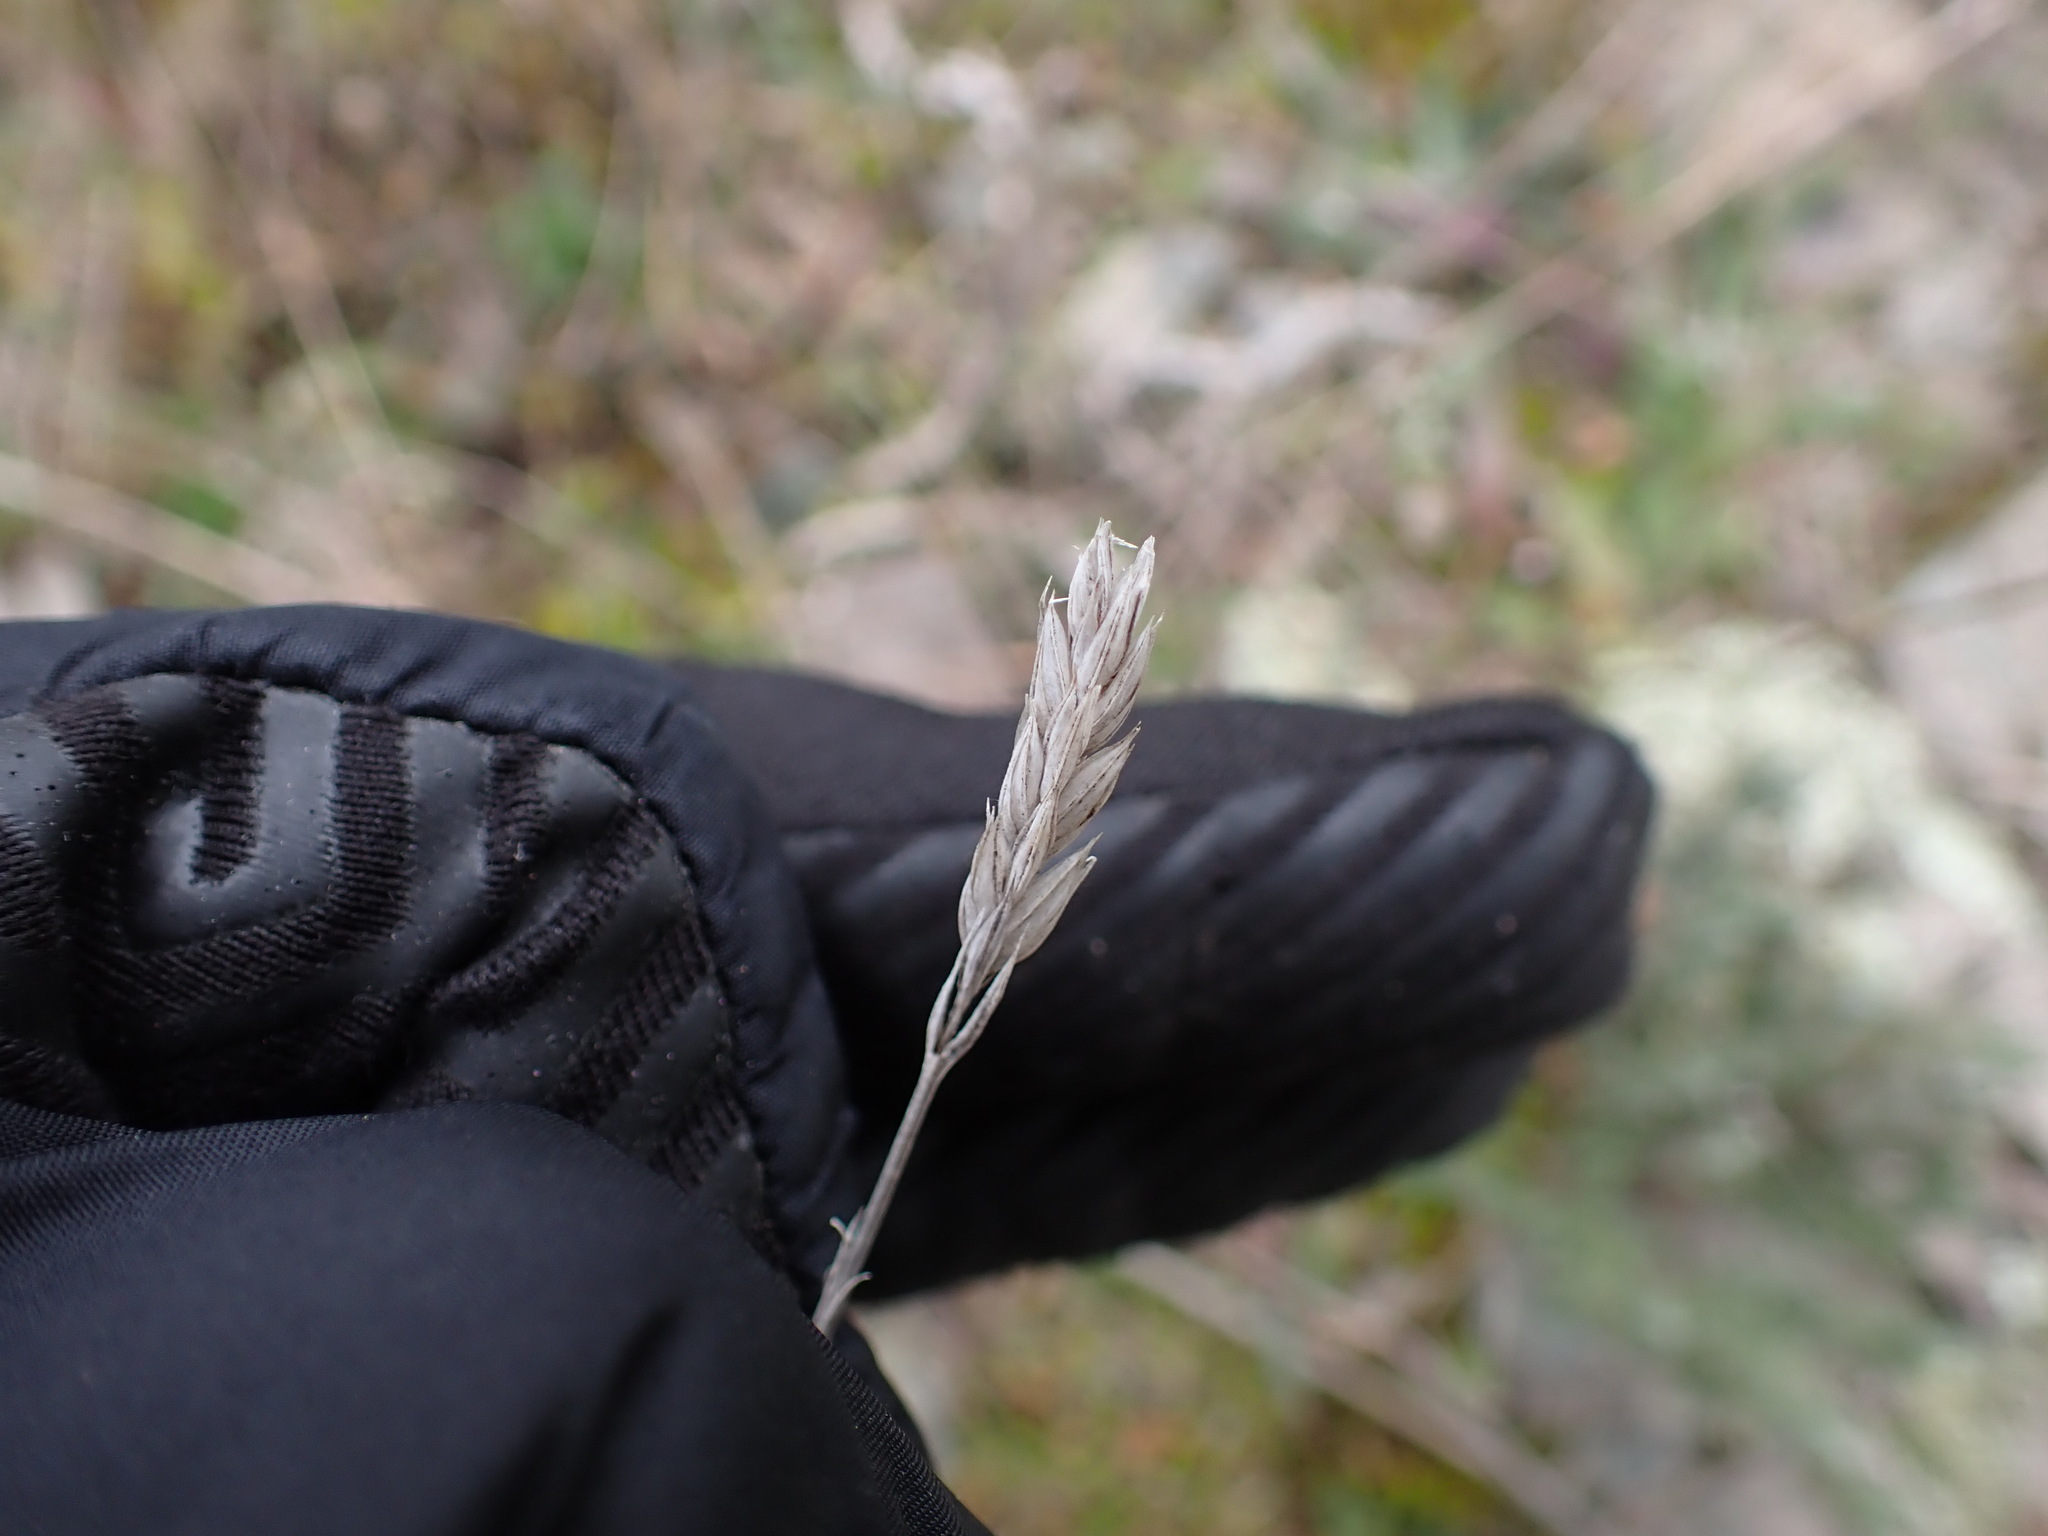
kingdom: Plantae
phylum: Tracheophyta
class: Magnoliopsida
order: Gentianales
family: Rubiaceae
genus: Crucianella
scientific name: Crucianella angustifolia
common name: Narrowleaf crucianella
